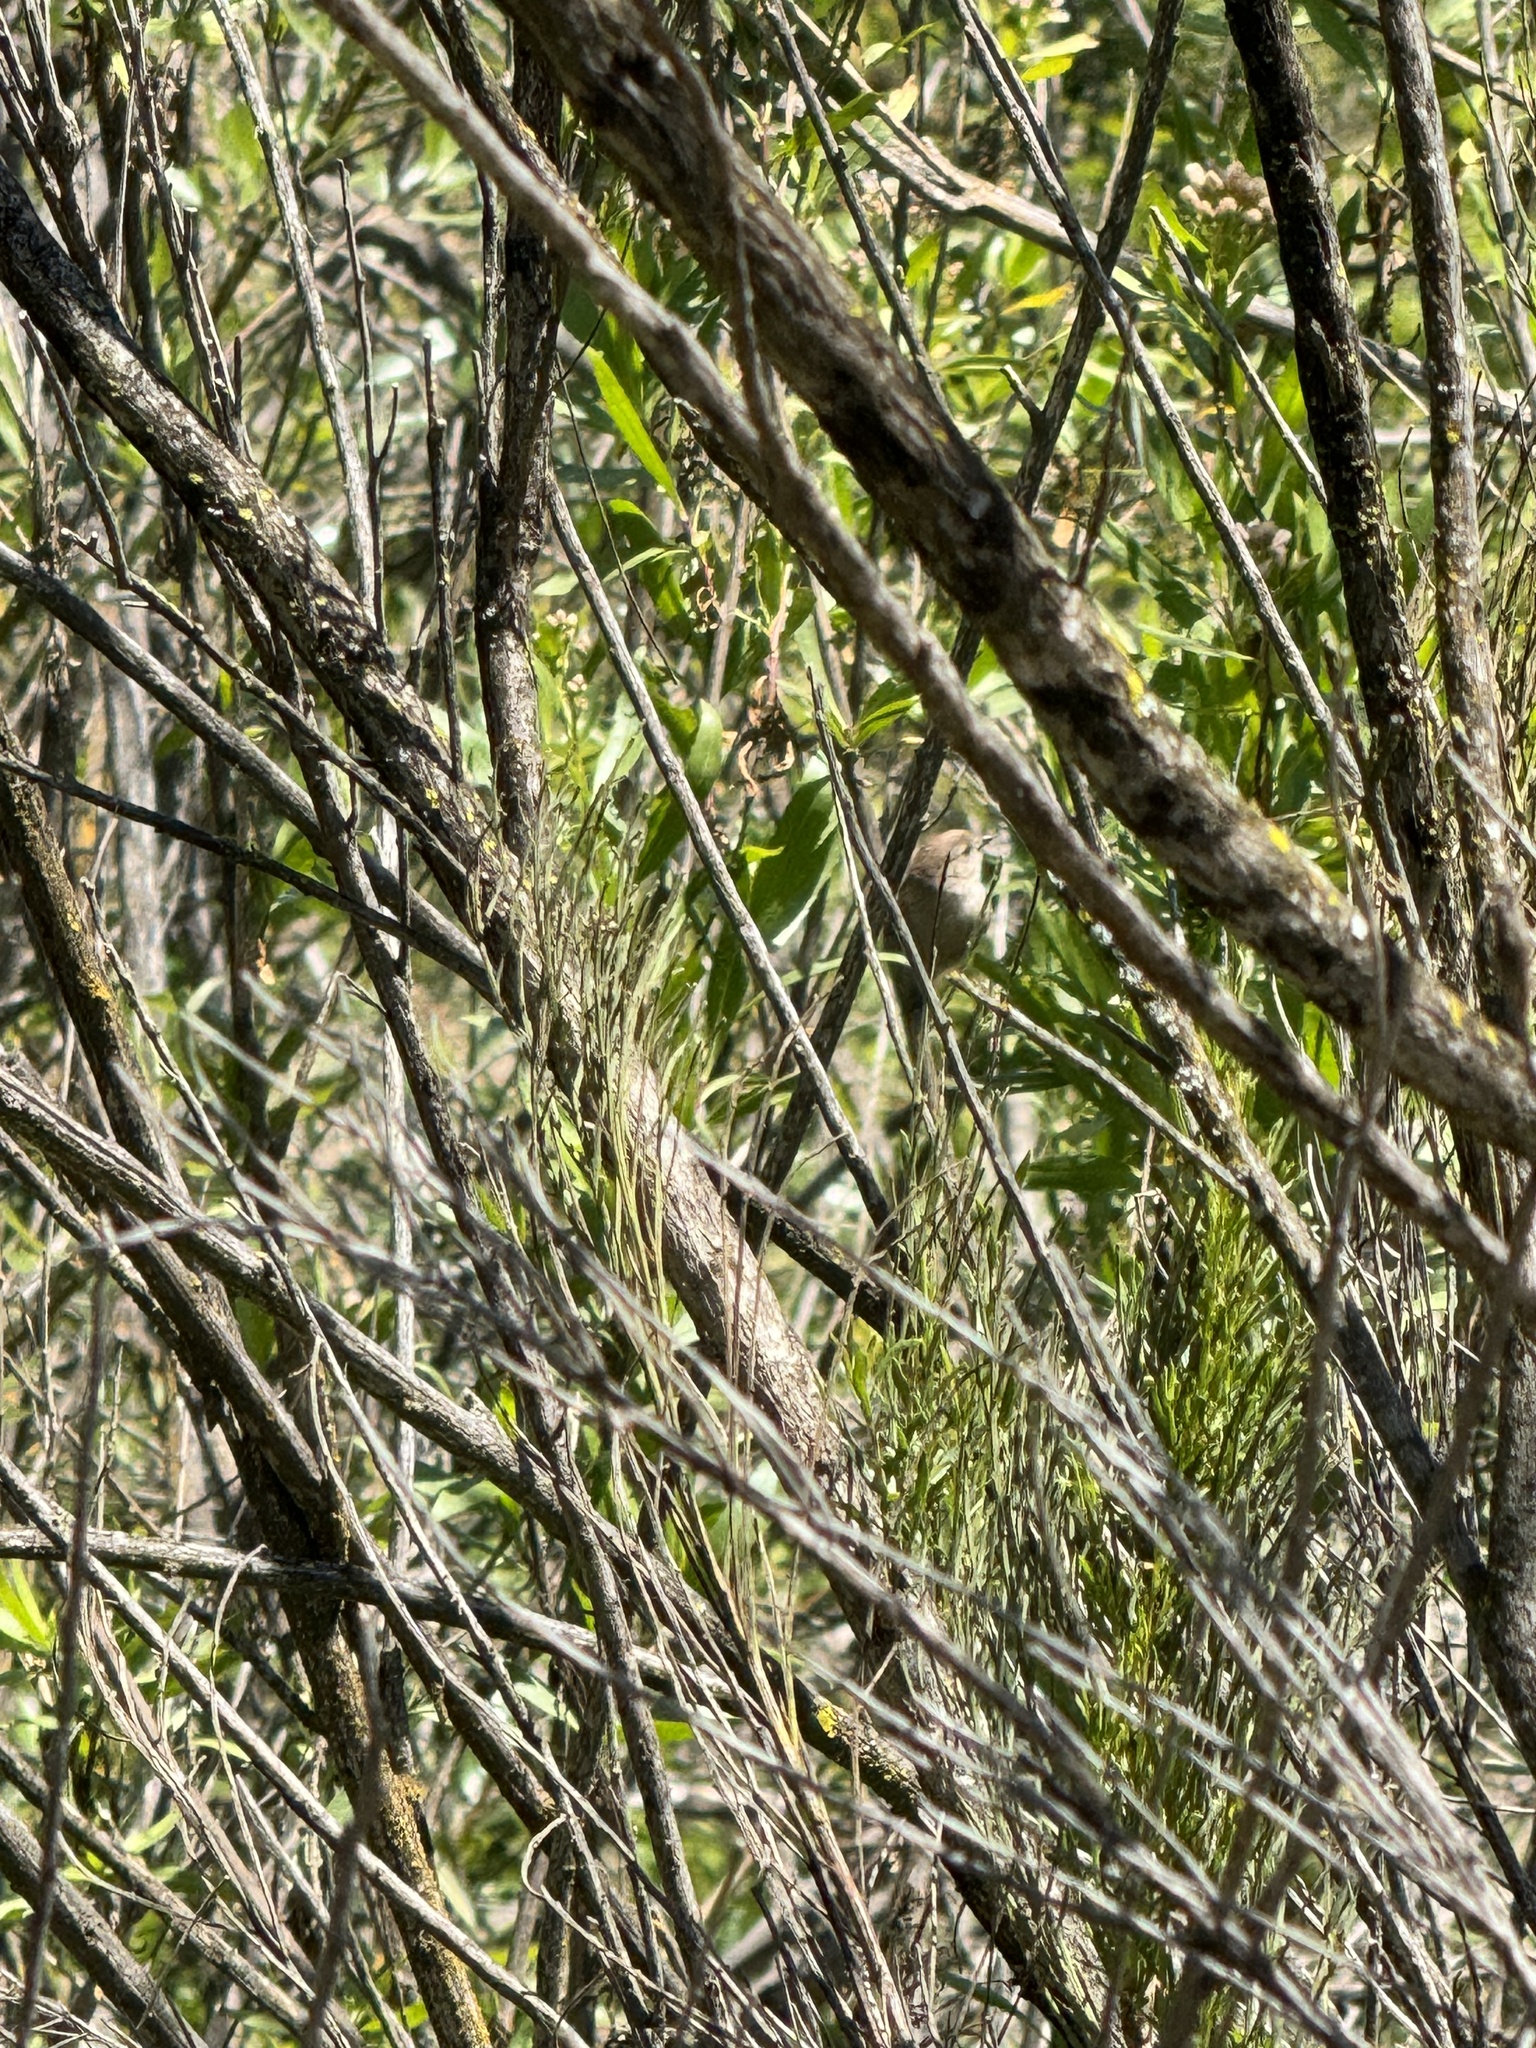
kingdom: Animalia
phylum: Chordata
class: Aves
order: Passeriformes
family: Aegithalidae
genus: Psaltriparus
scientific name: Psaltriparus minimus
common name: American bushtit
